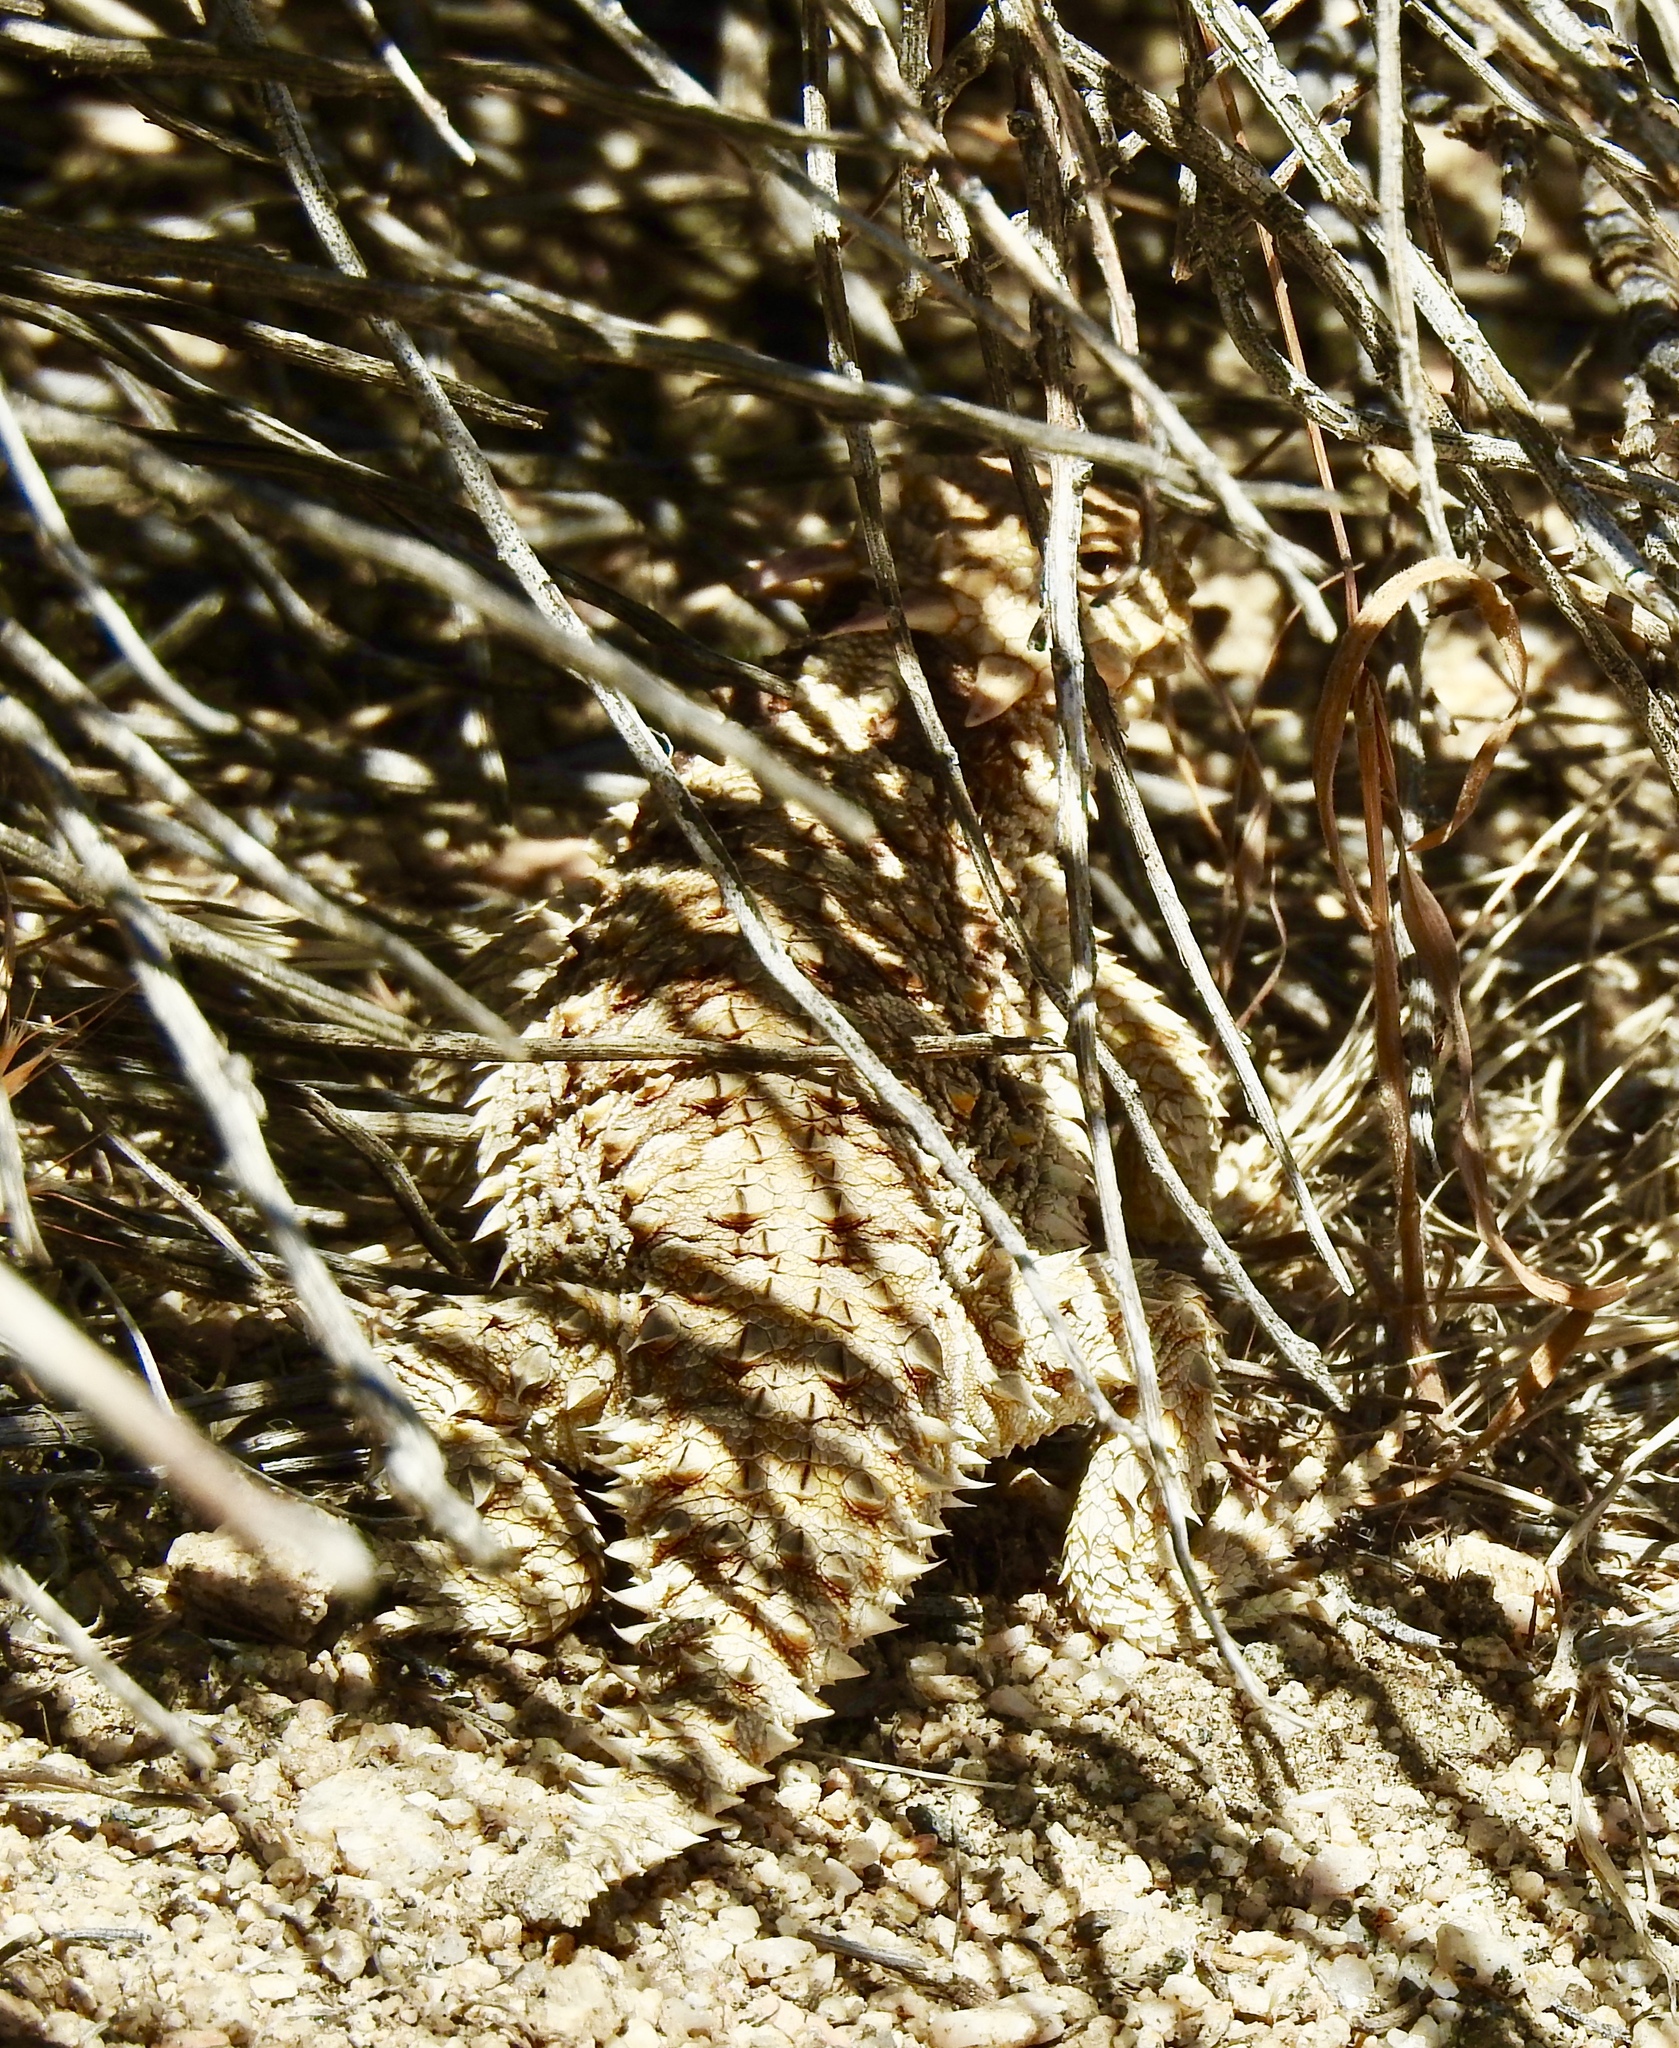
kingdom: Animalia
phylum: Chordata
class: Squamata
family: Phrynosomatidae
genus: Phrynosoma
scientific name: Phrynosoma blainvillii
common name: San diego horned lizard
